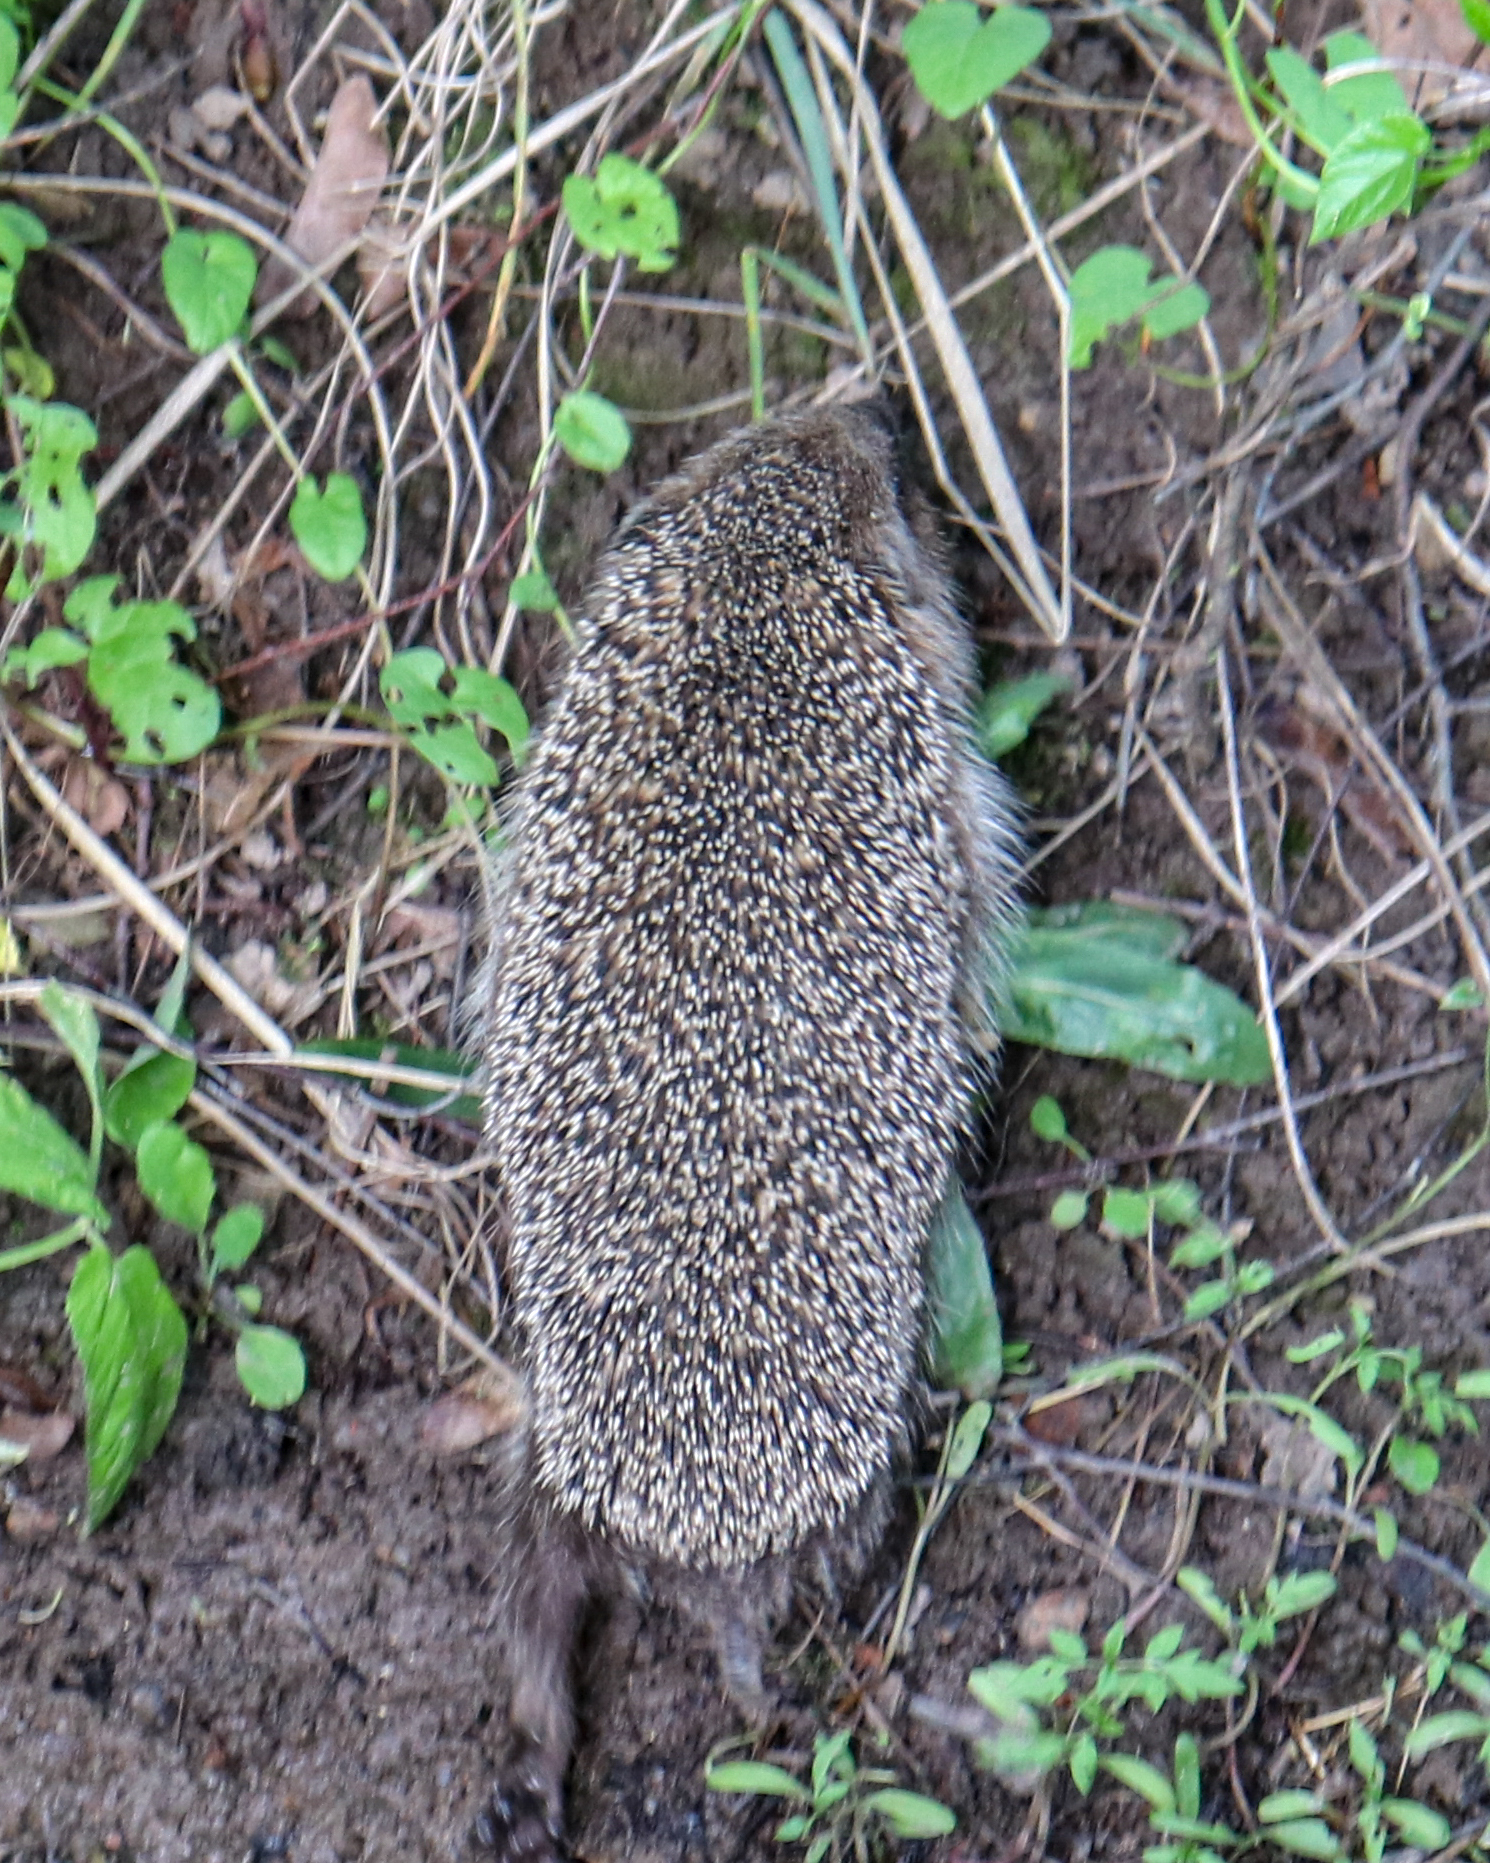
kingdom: Animalia
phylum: Chordata
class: Mammalia
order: Erinaceomorpha
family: Erinaceidae
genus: Erinaceus
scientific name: Erinaceus europaeus
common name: West european hedgehog
